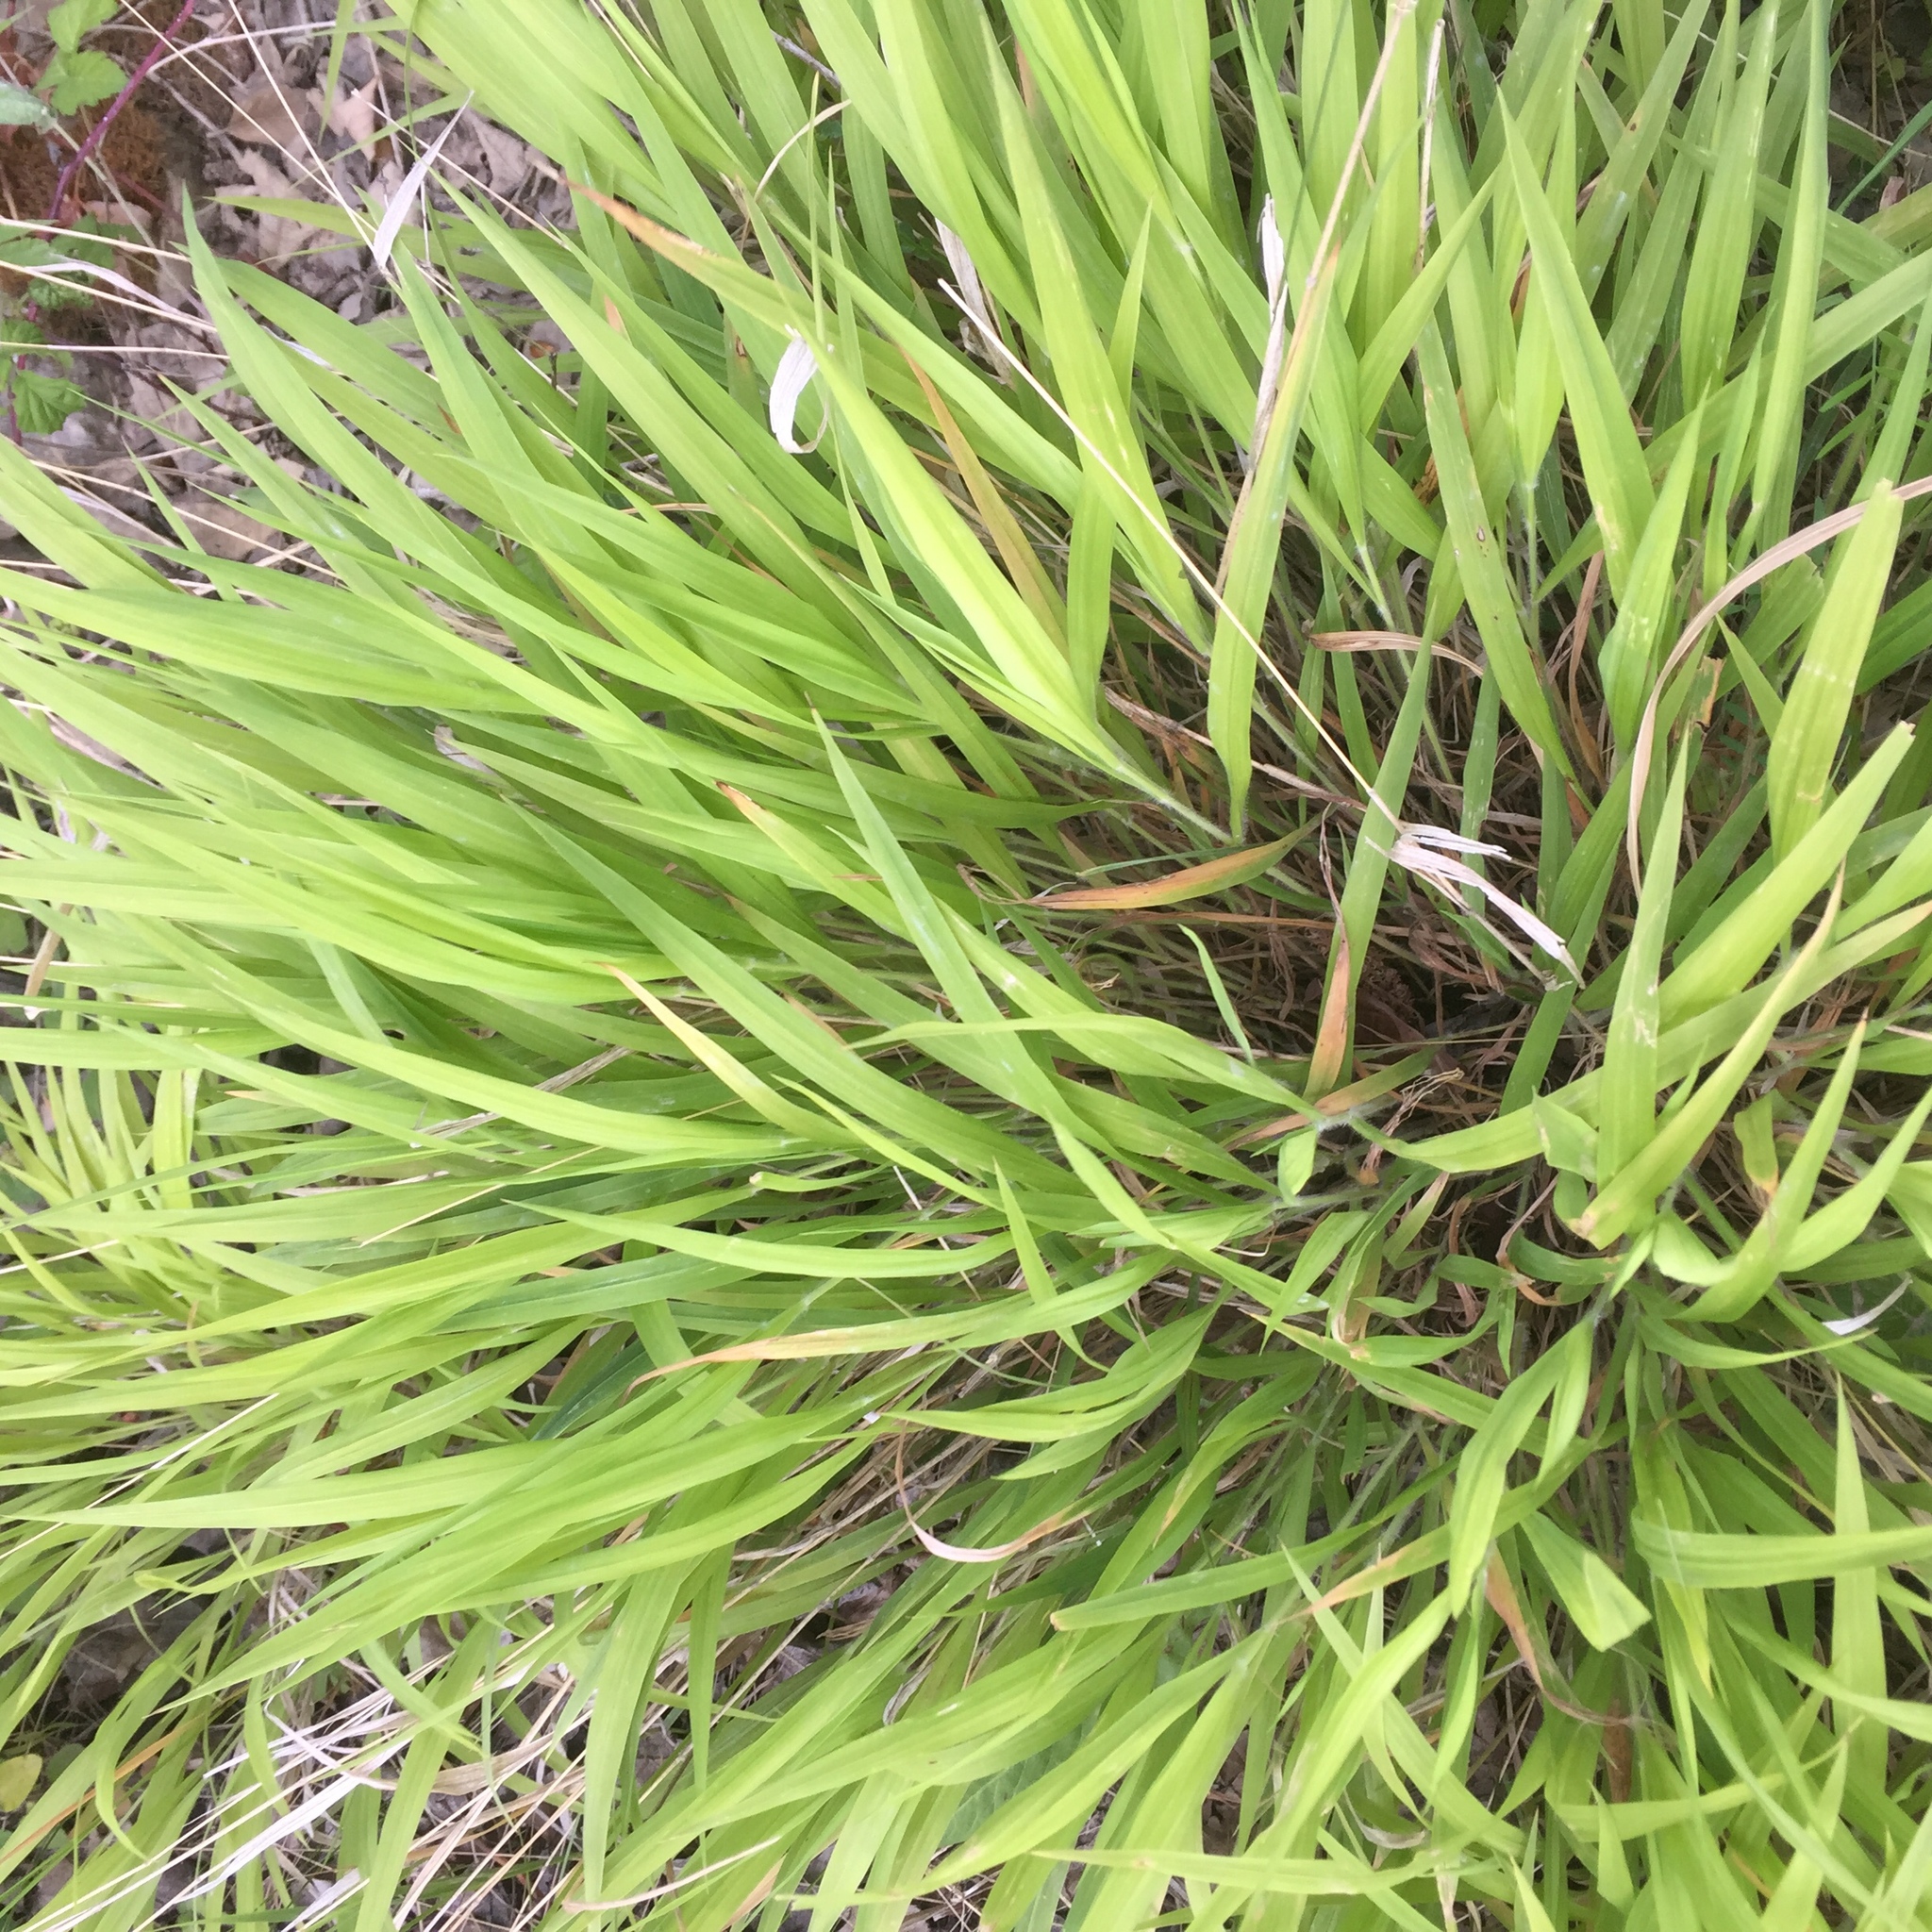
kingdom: Plantae
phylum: Tracheophyta
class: Liliopsida
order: Poales
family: Poaceae
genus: Brachypodium
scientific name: Brachypodium sylvaticum
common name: False-brome
